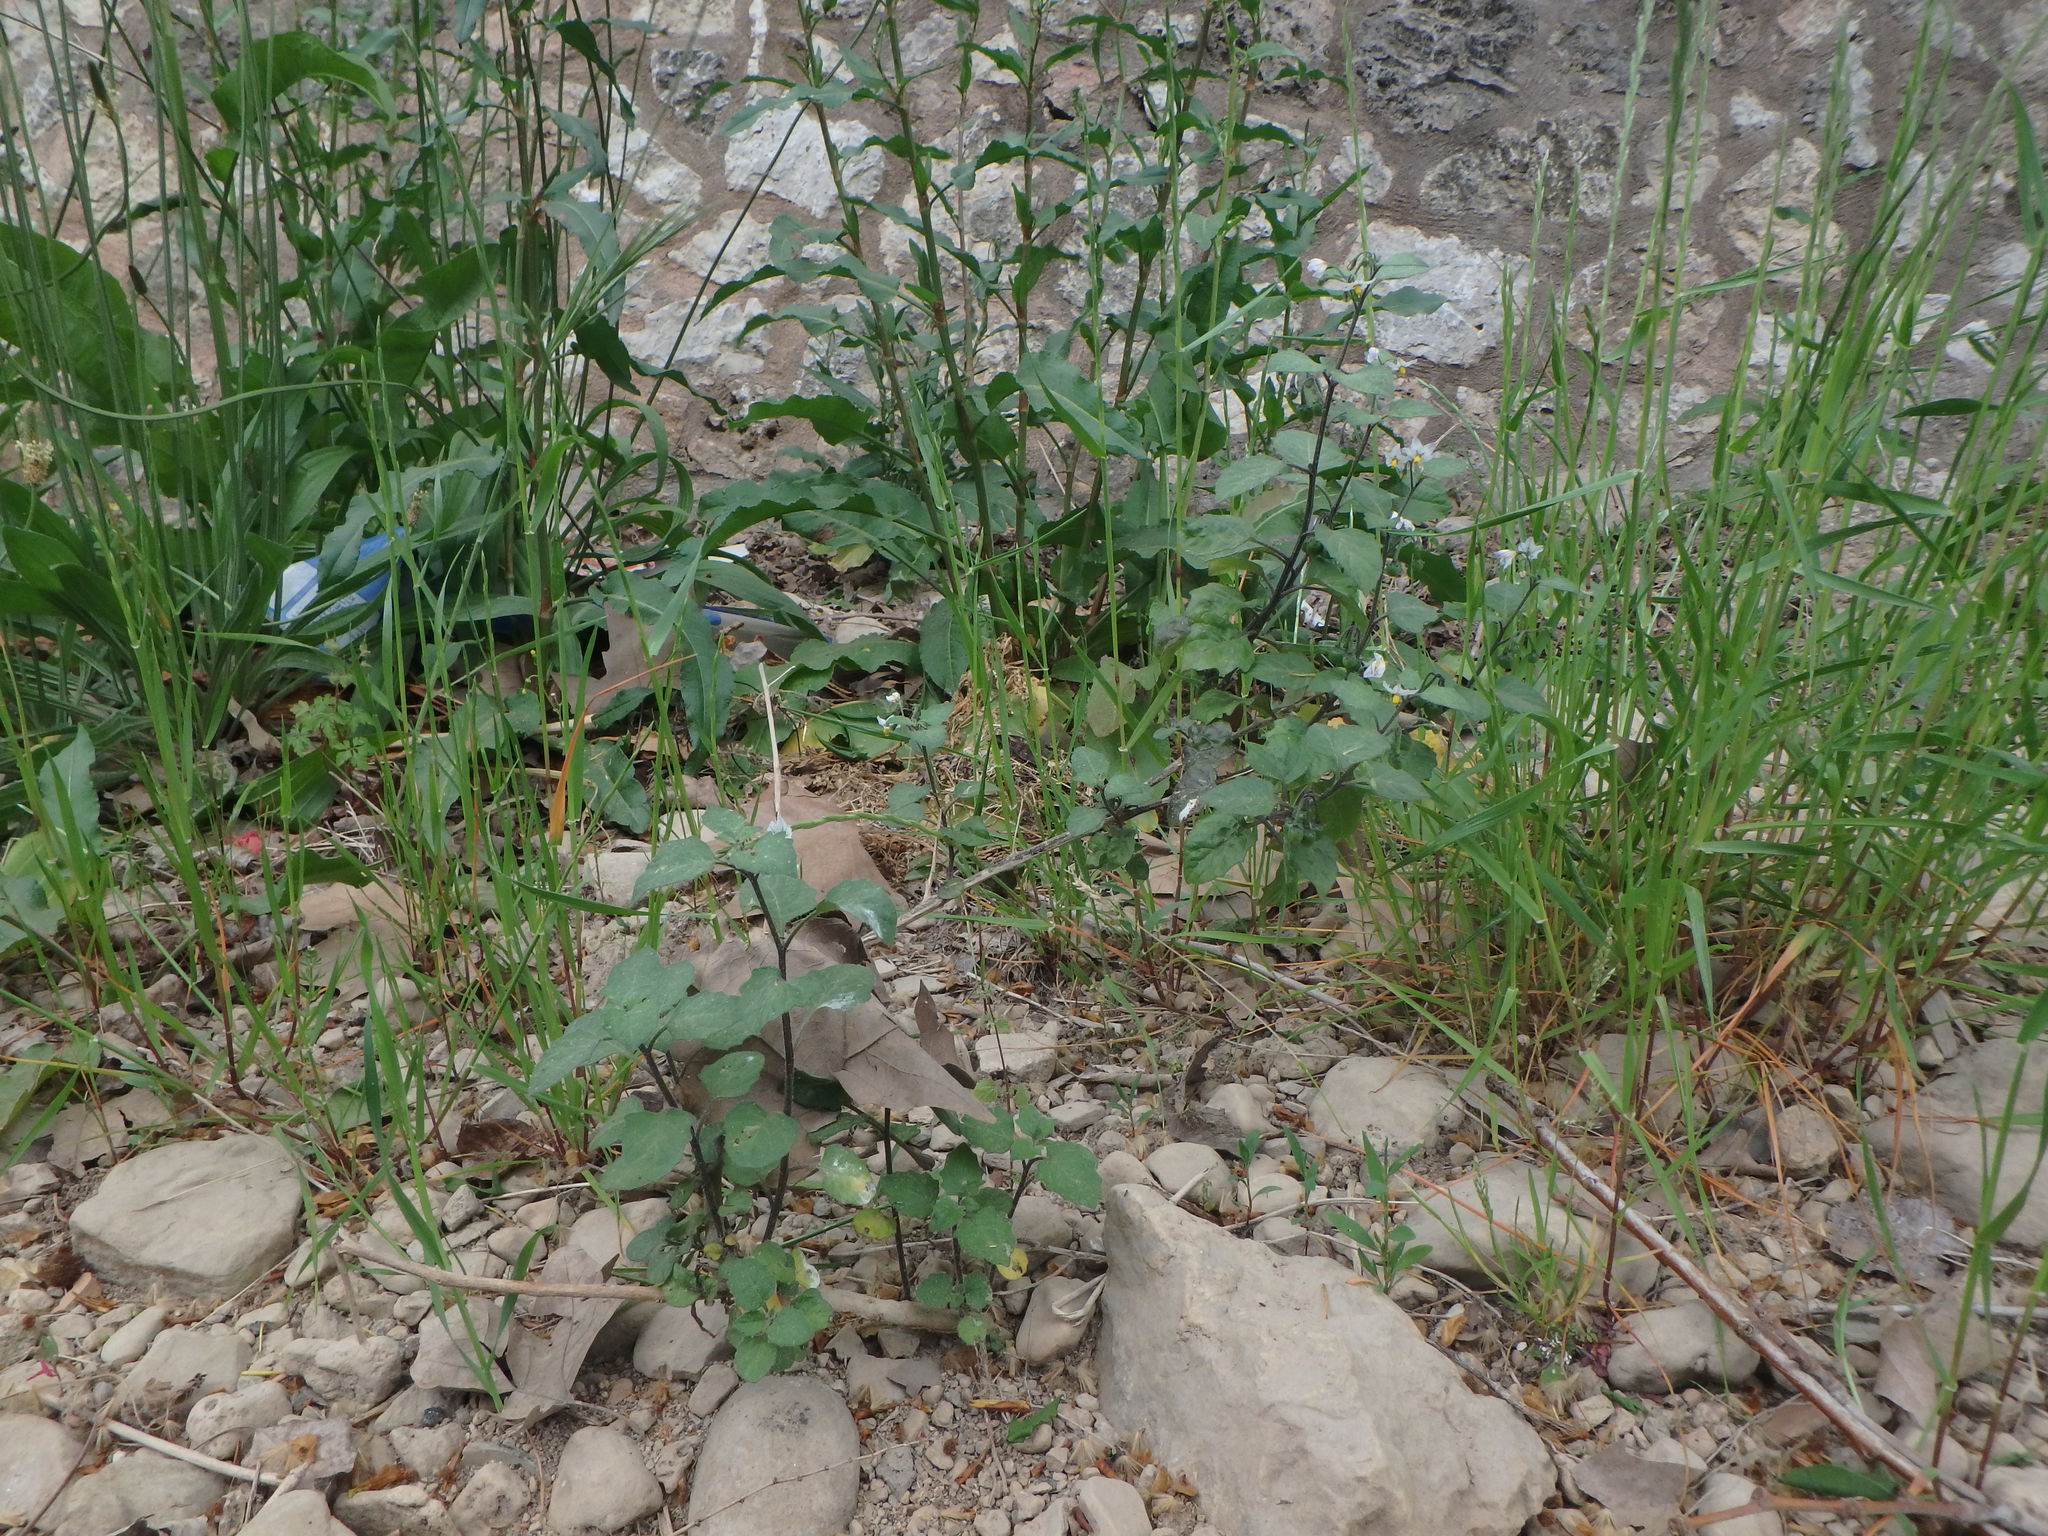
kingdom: Plantae
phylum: Tracheophyta
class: Magnoliopsida
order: Solanales
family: Solanaceae
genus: Solanum
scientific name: Solanum villosum
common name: Red nightshade
